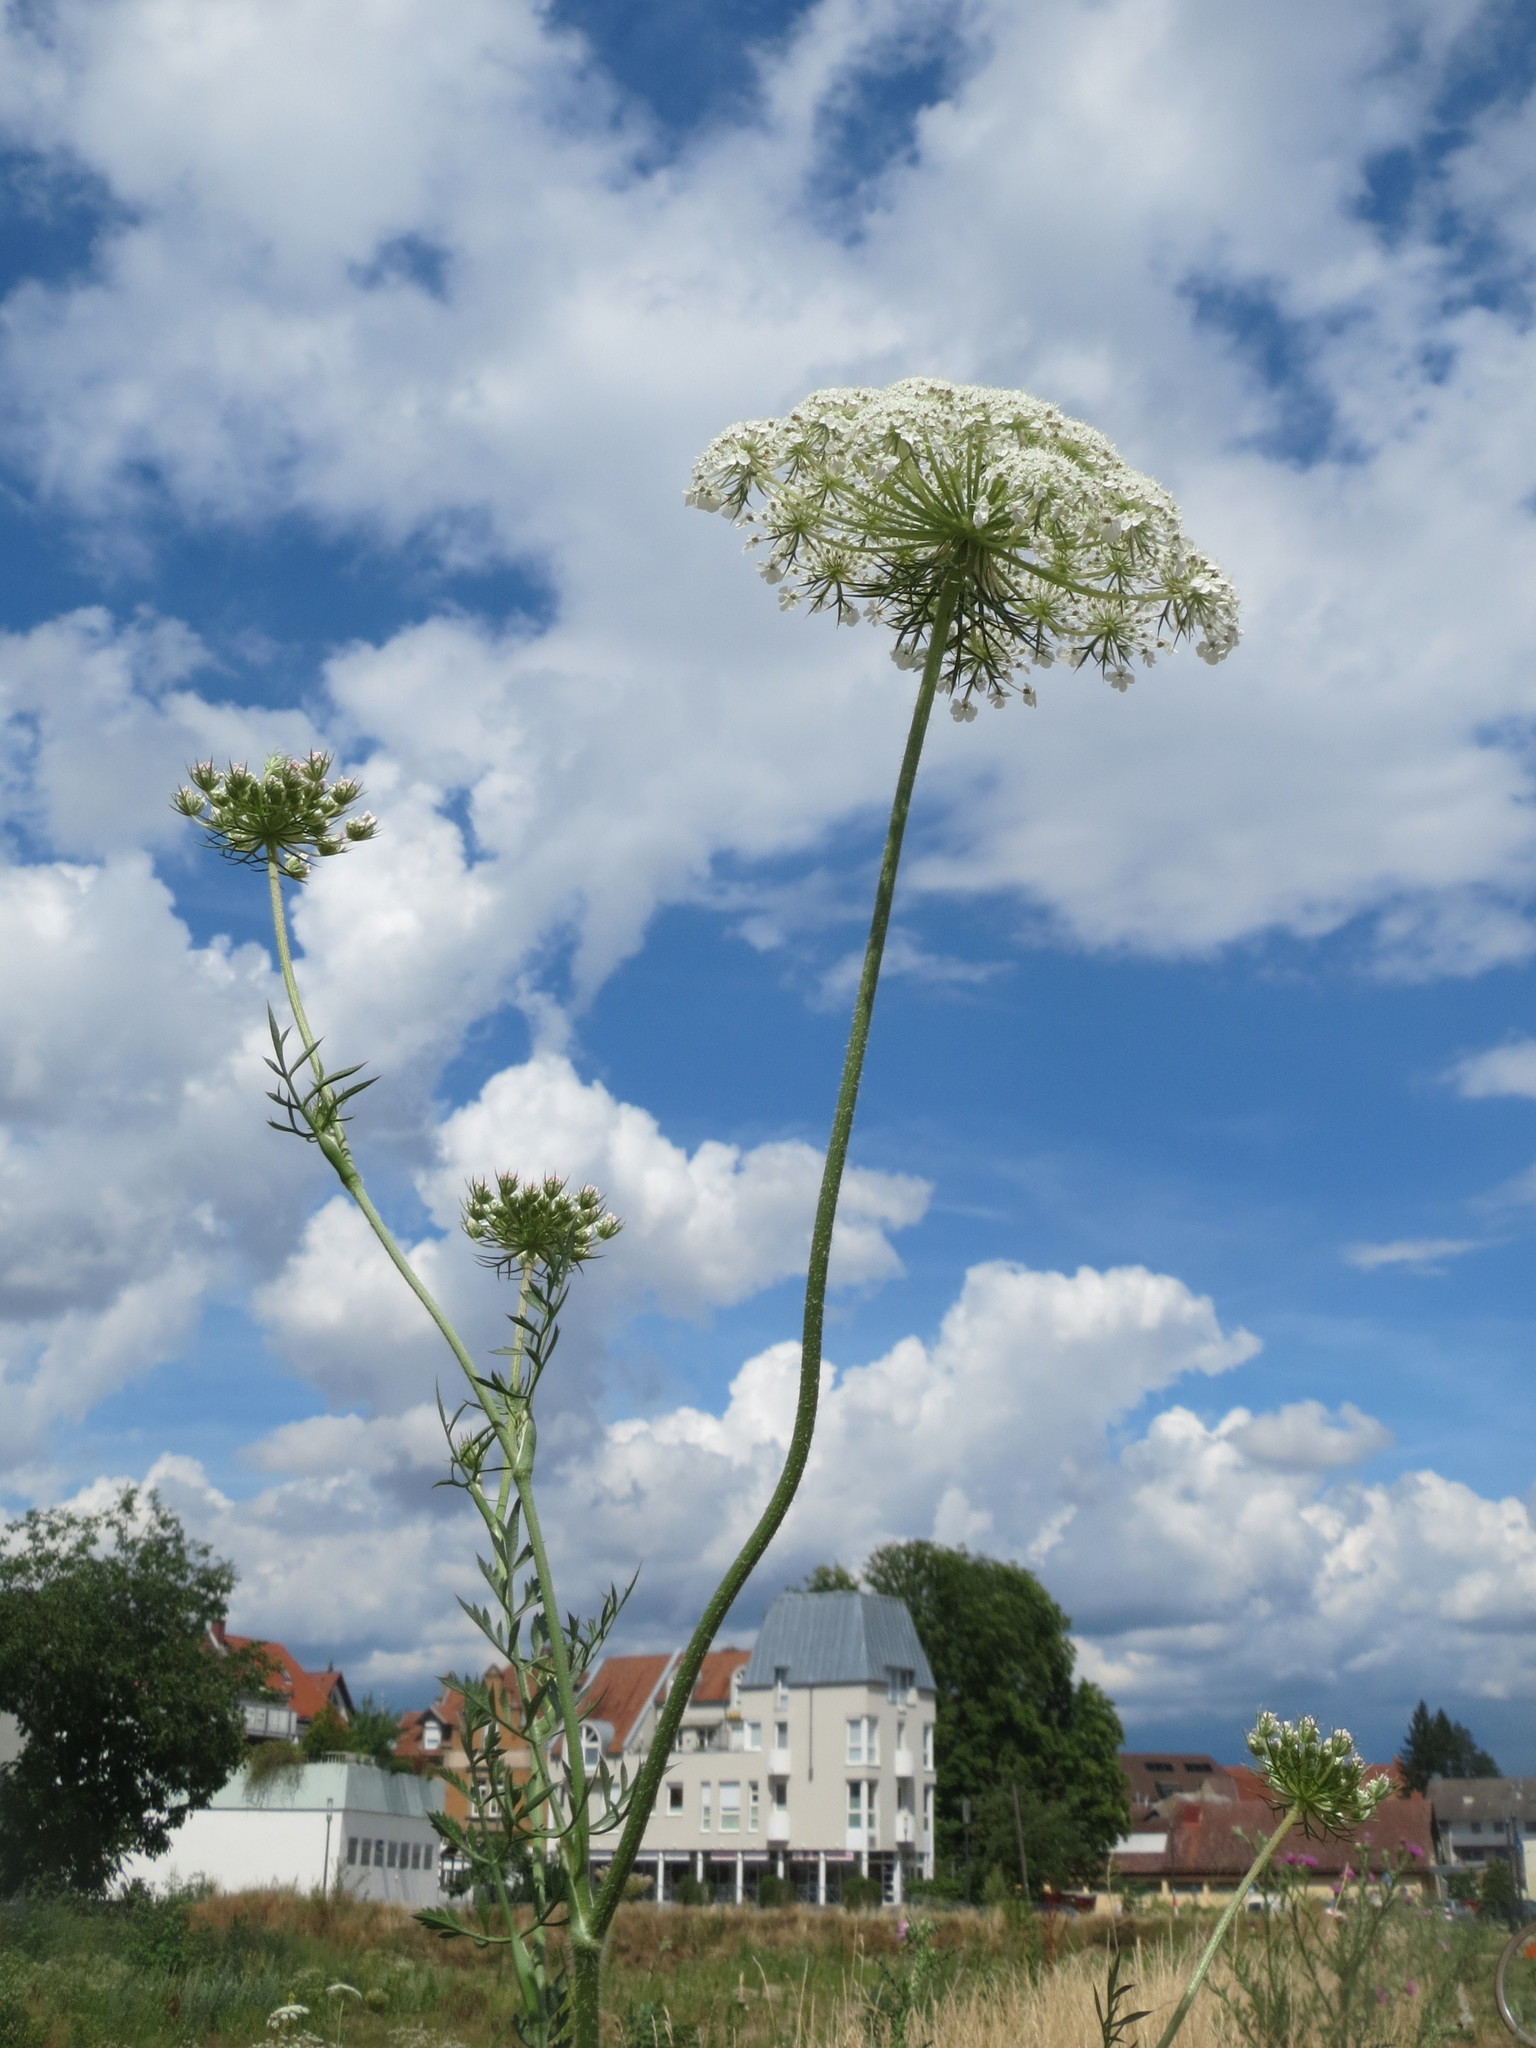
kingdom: Plantae
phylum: Tracheophyta
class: Magnoliopsida
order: Apiales
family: Apiaceae
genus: Daucus
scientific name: Daucus carota
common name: Wild carrot
